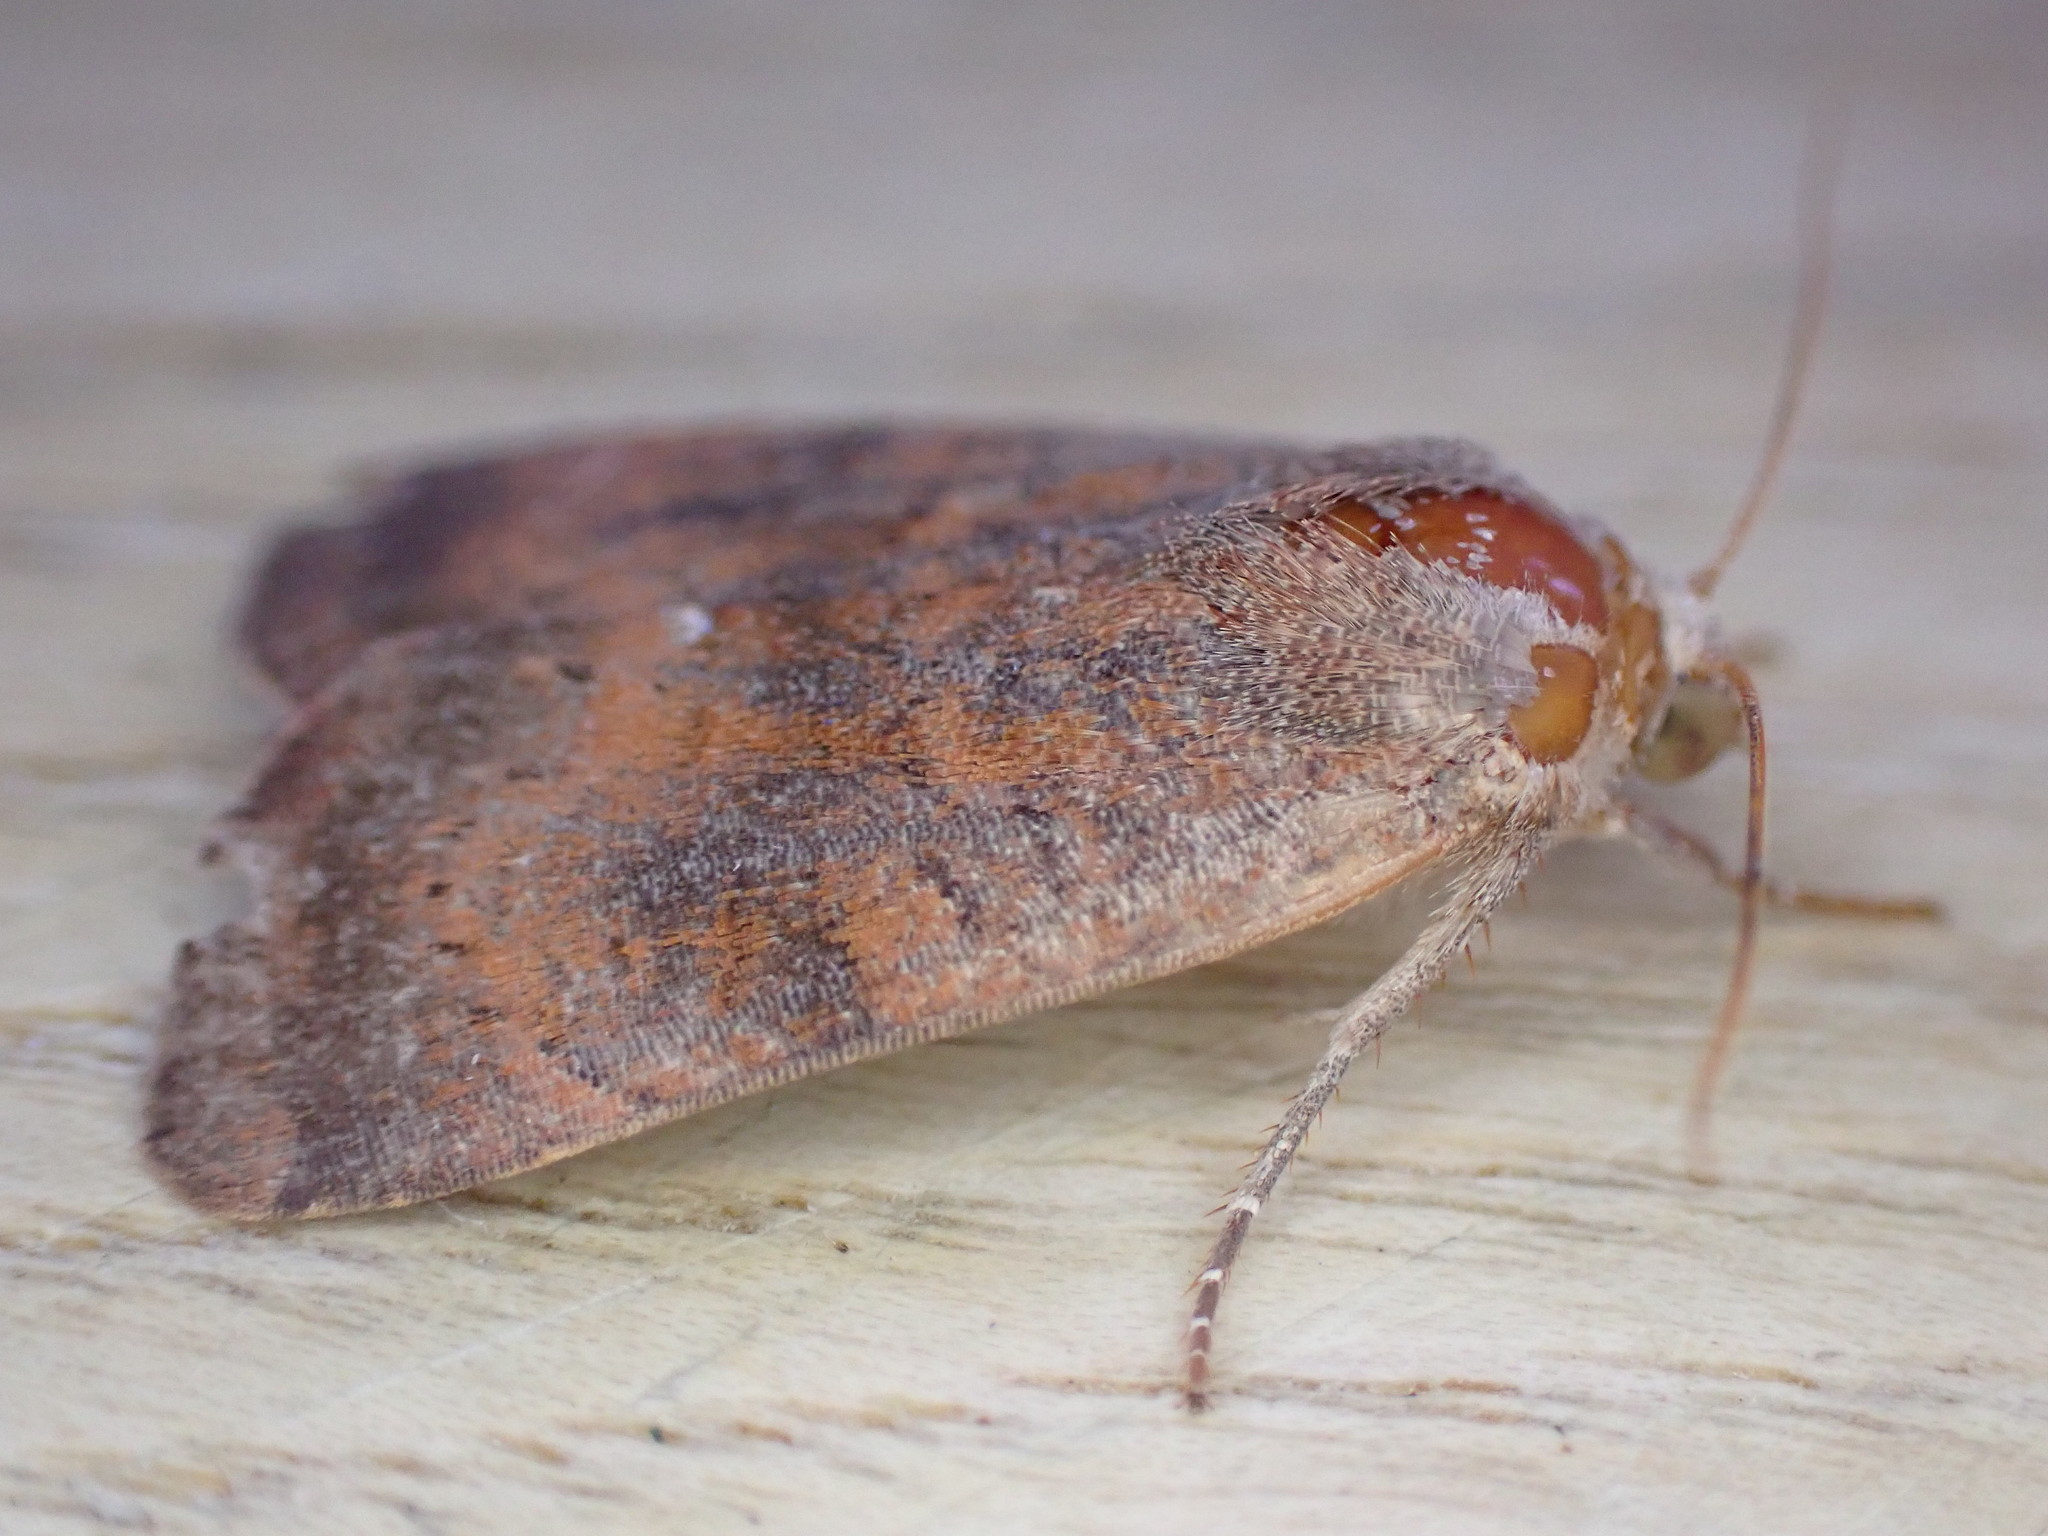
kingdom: Animalia
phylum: Arthropoda
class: Insecta
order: Lepidoptera
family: Noctuidae
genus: Noctua
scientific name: Noctua interjecta
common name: Least yellow underwing
